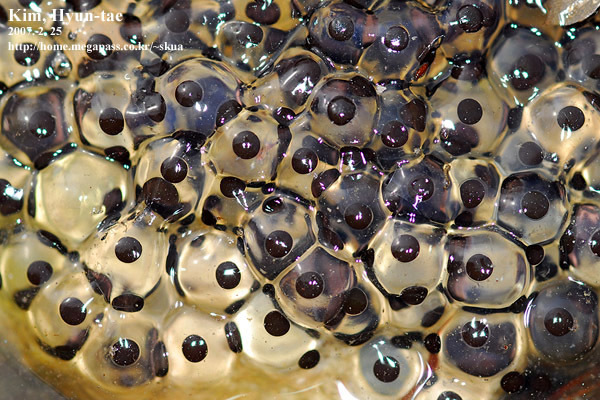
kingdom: Animalia
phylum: Chordata
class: Amphibia
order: Anura
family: Ranidae
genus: Rana
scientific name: Rana huanrenensis
